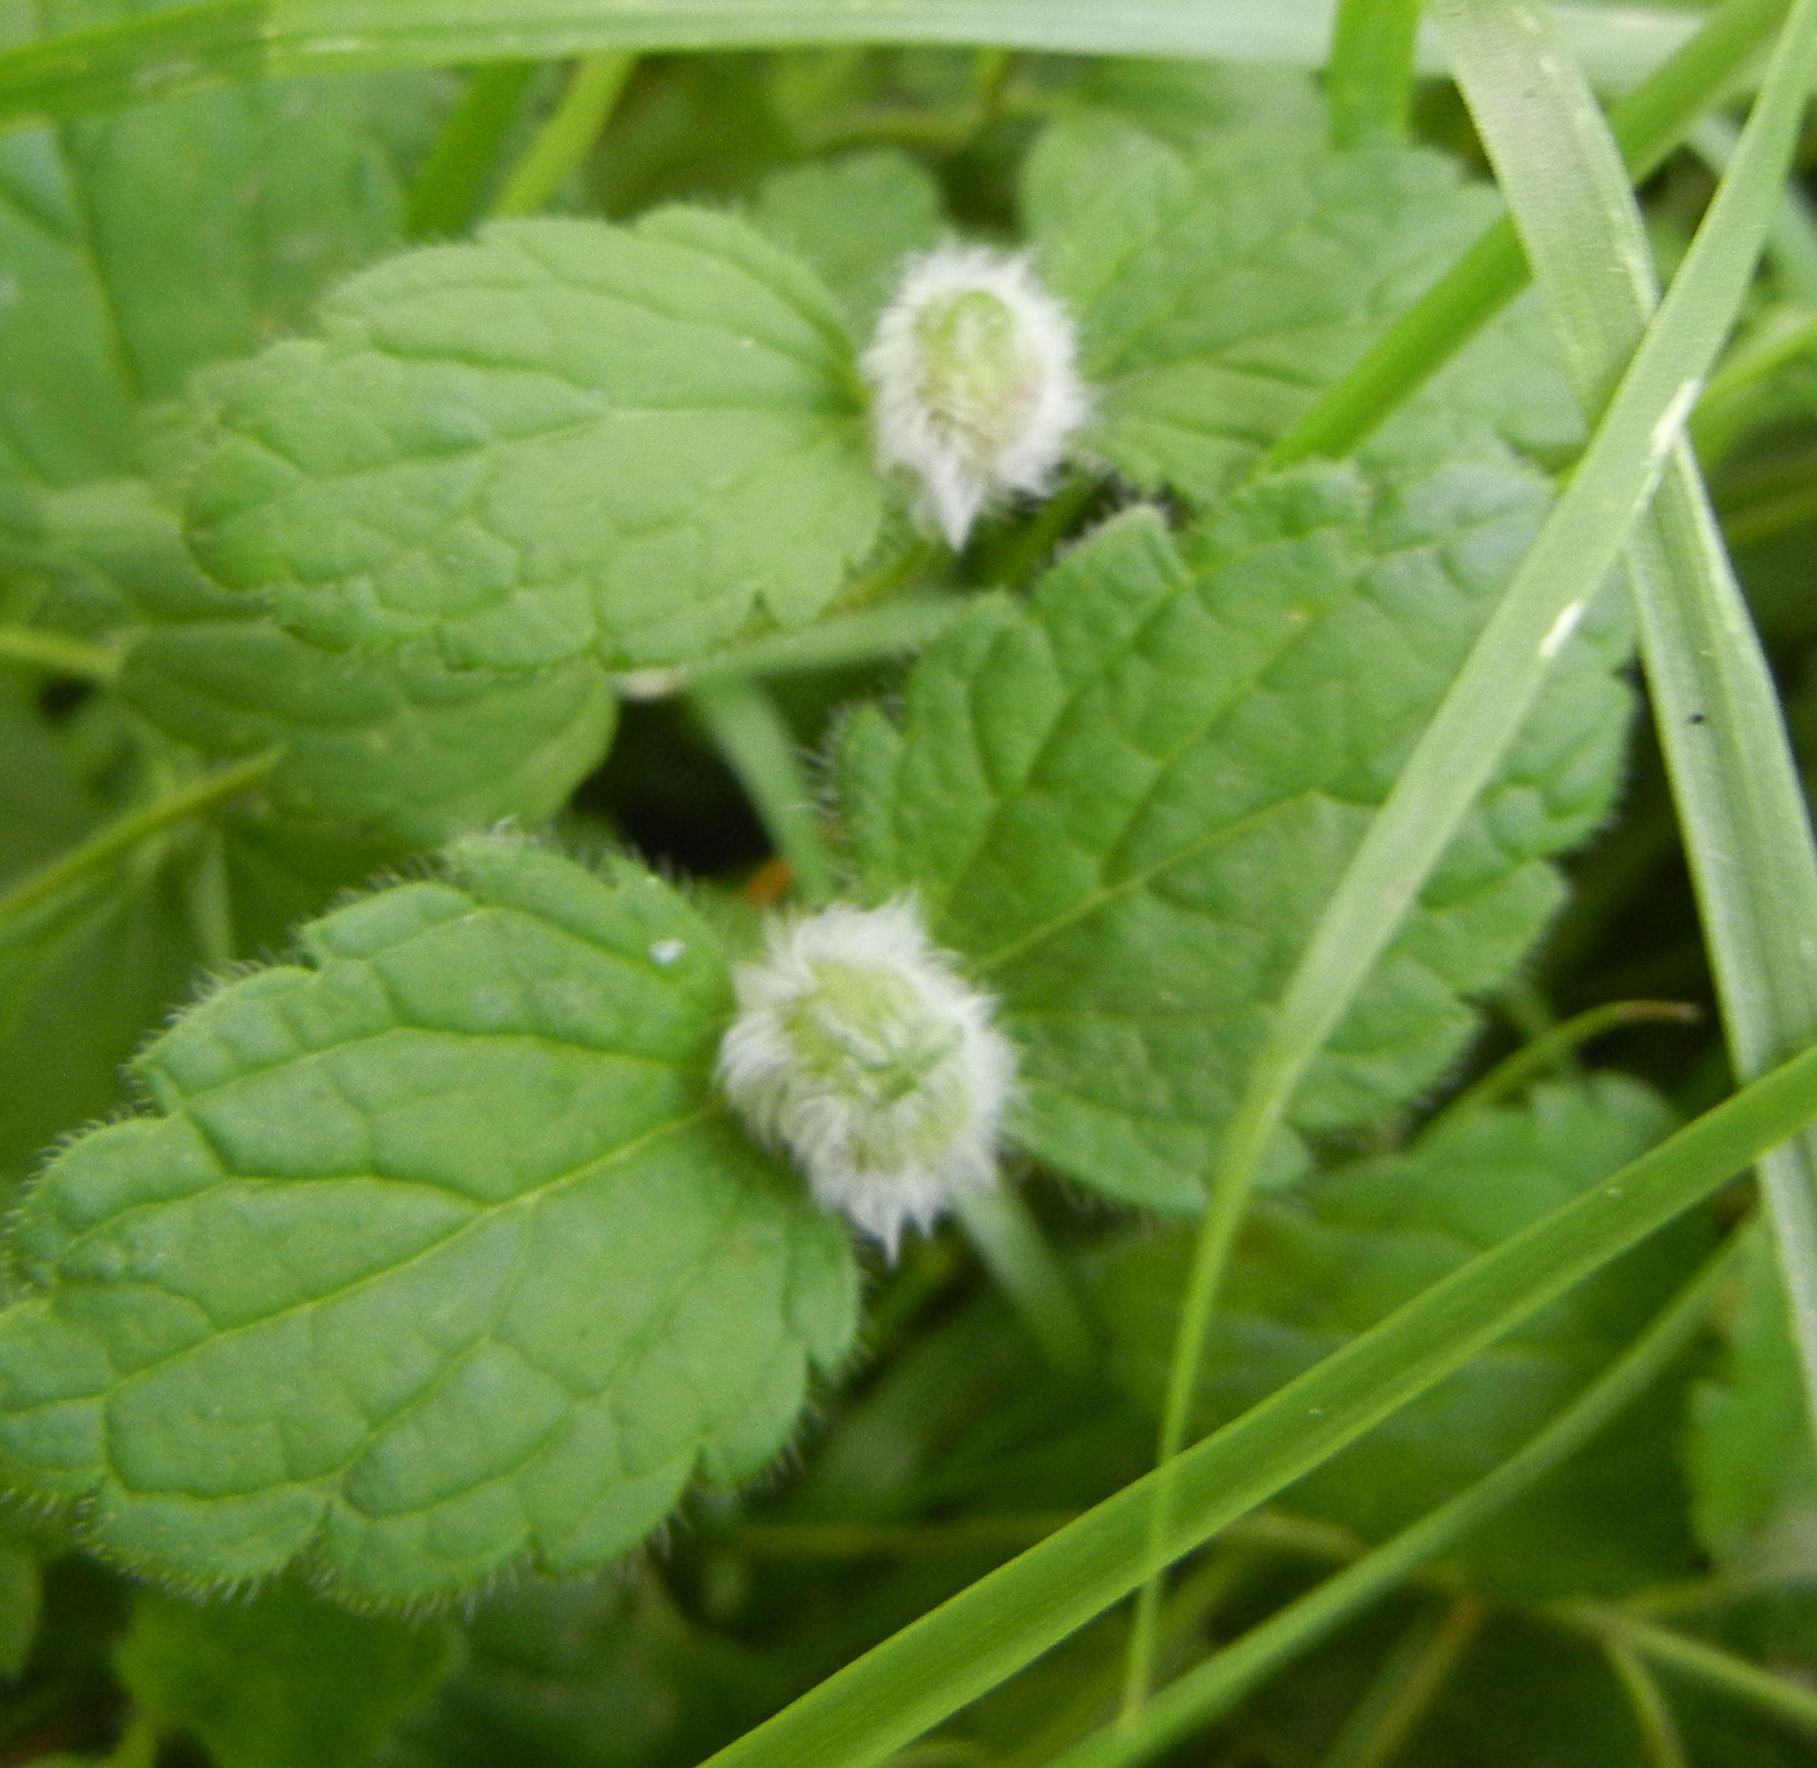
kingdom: Animalia
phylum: Arthropoda
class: Insecta
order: Diptera
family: Cecidomyiidae
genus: Jaapiella
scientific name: Jaapiella veronicae
